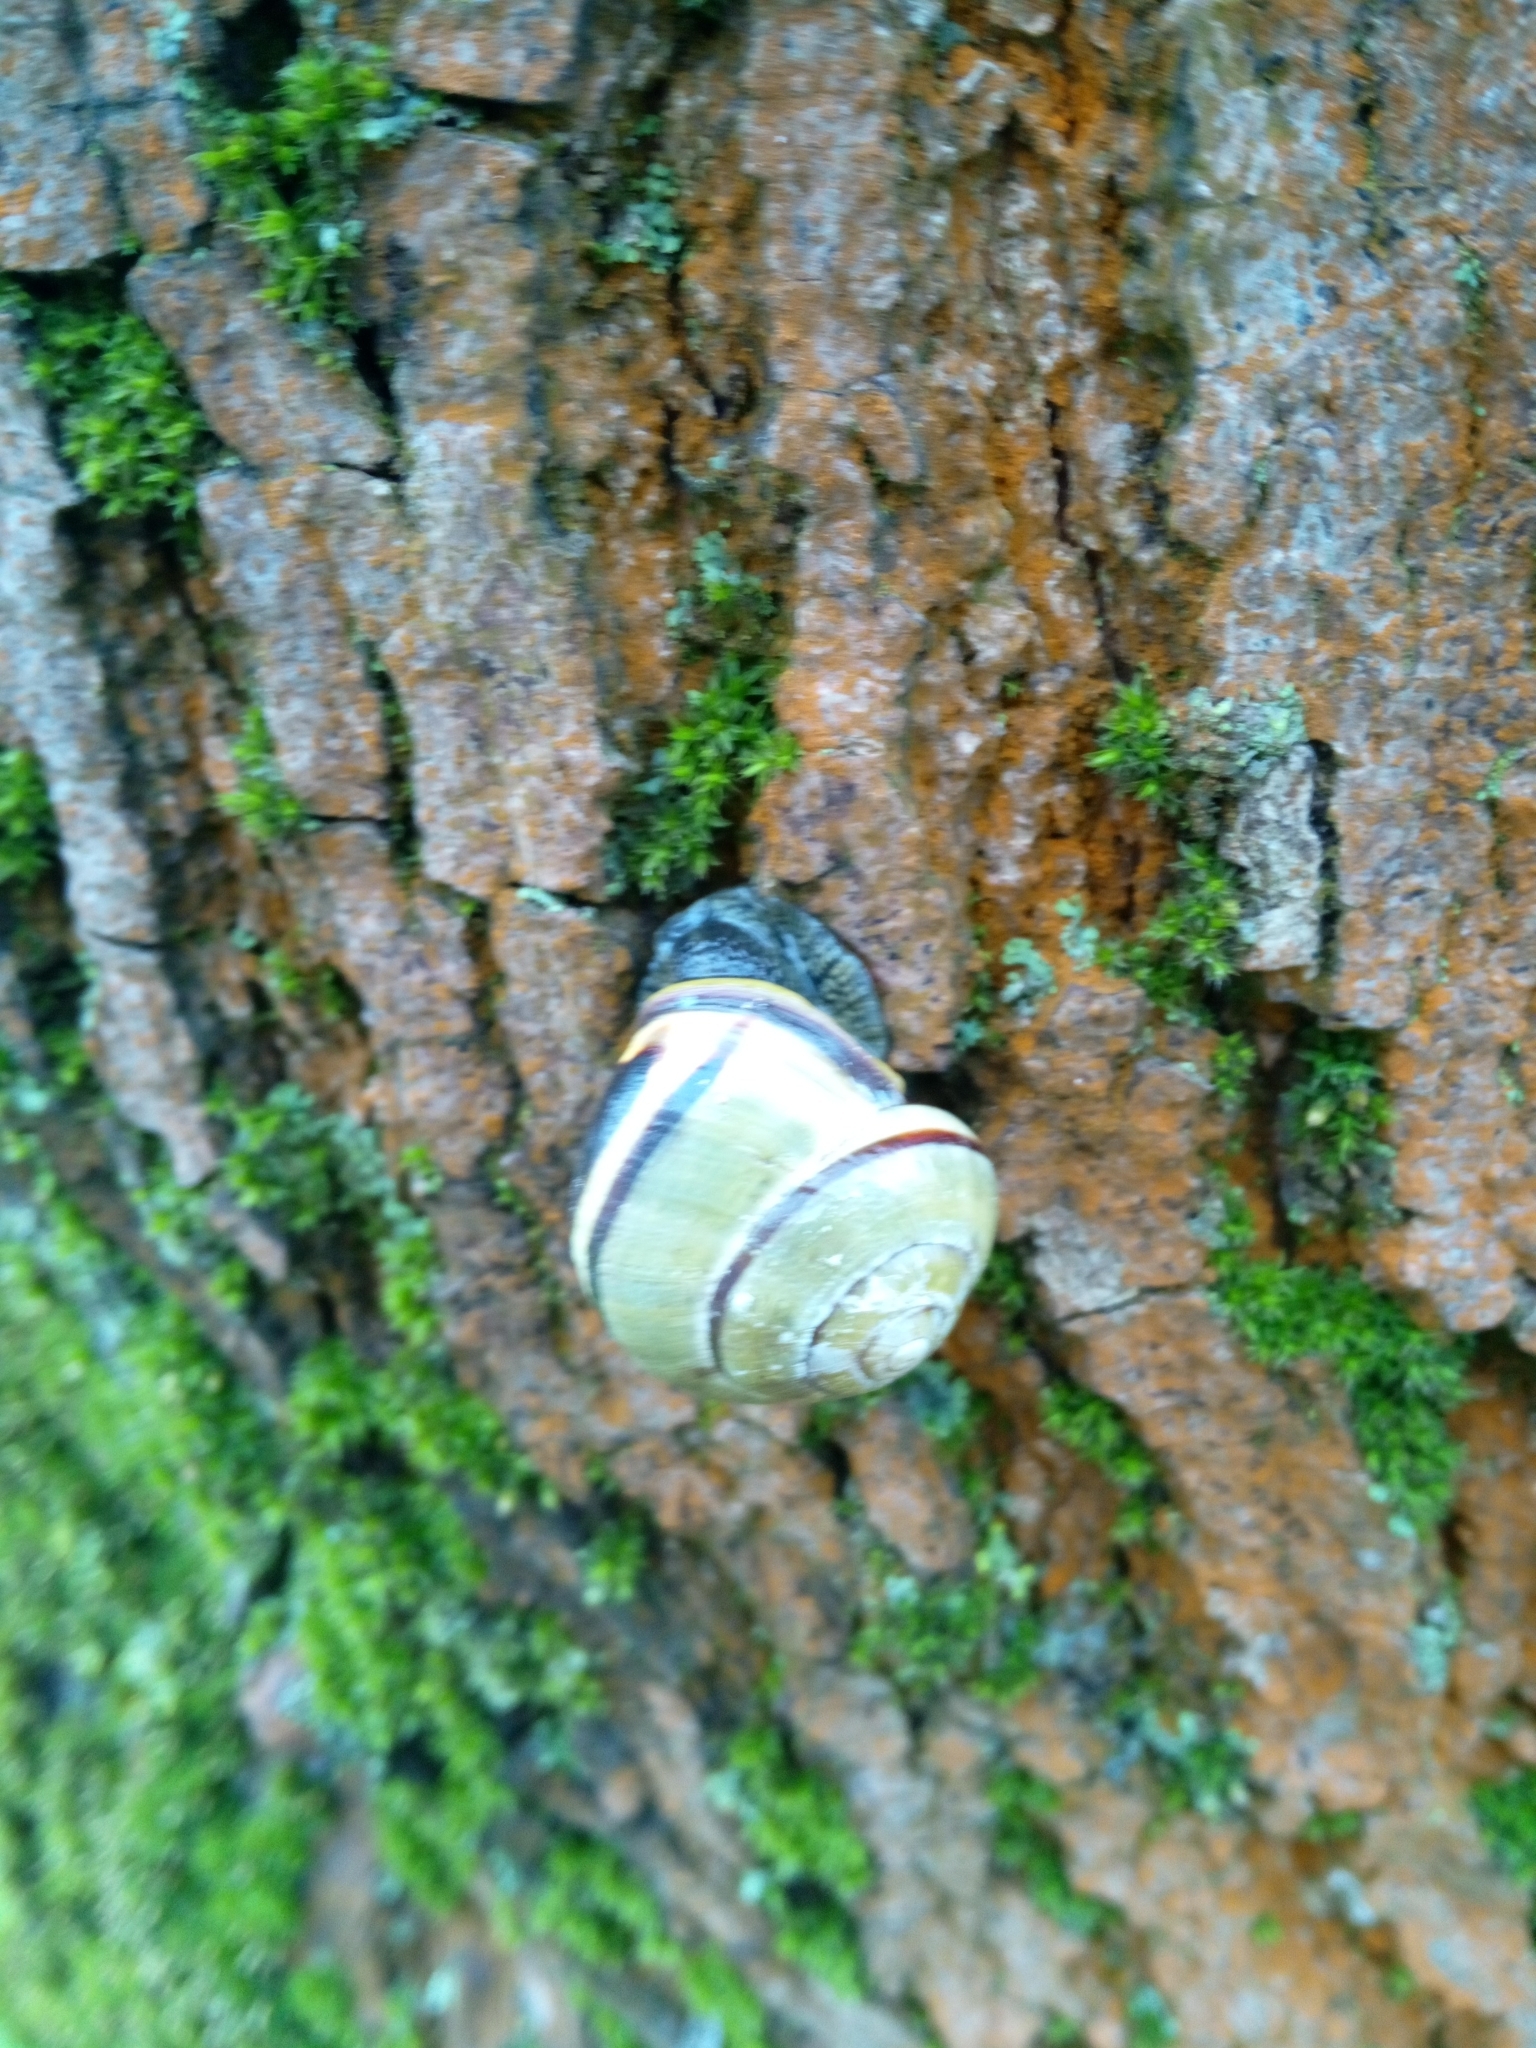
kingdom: Animalia
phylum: Mollusca
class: Gastropoda
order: Stylommatophora
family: Helicidae
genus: Cepaea
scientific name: Cepaea nemoralis
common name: Grovesnail
